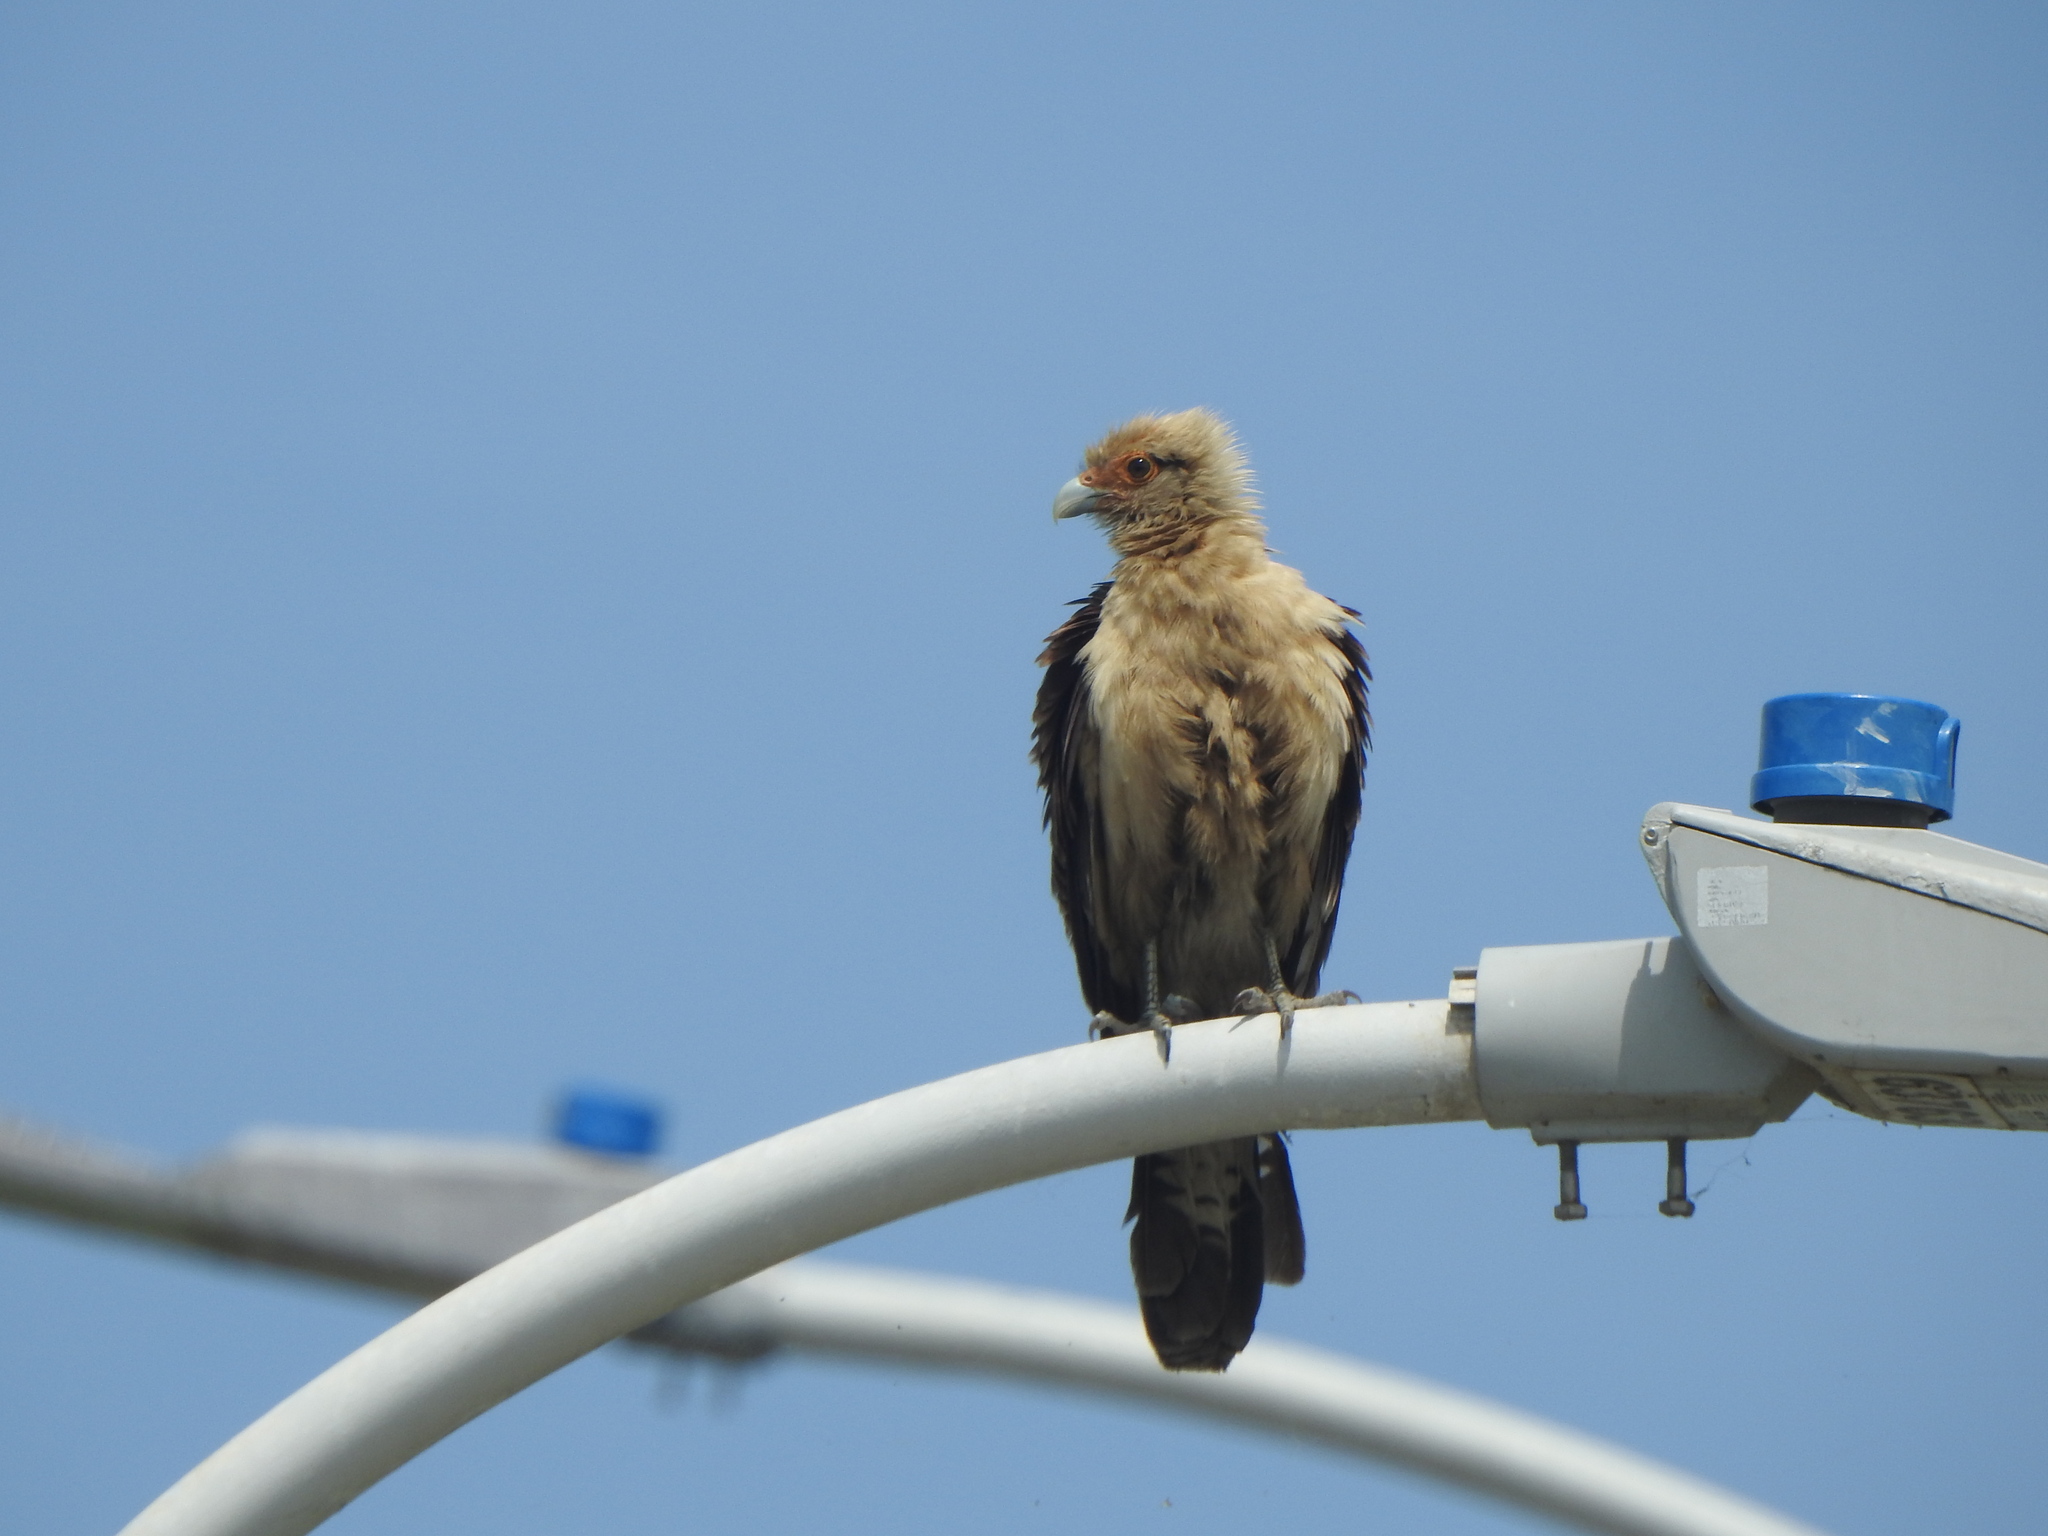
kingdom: Animalia
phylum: Chordata
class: Aves
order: Falconiformes
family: Falconidae
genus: Daptrius
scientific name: Daptrius
